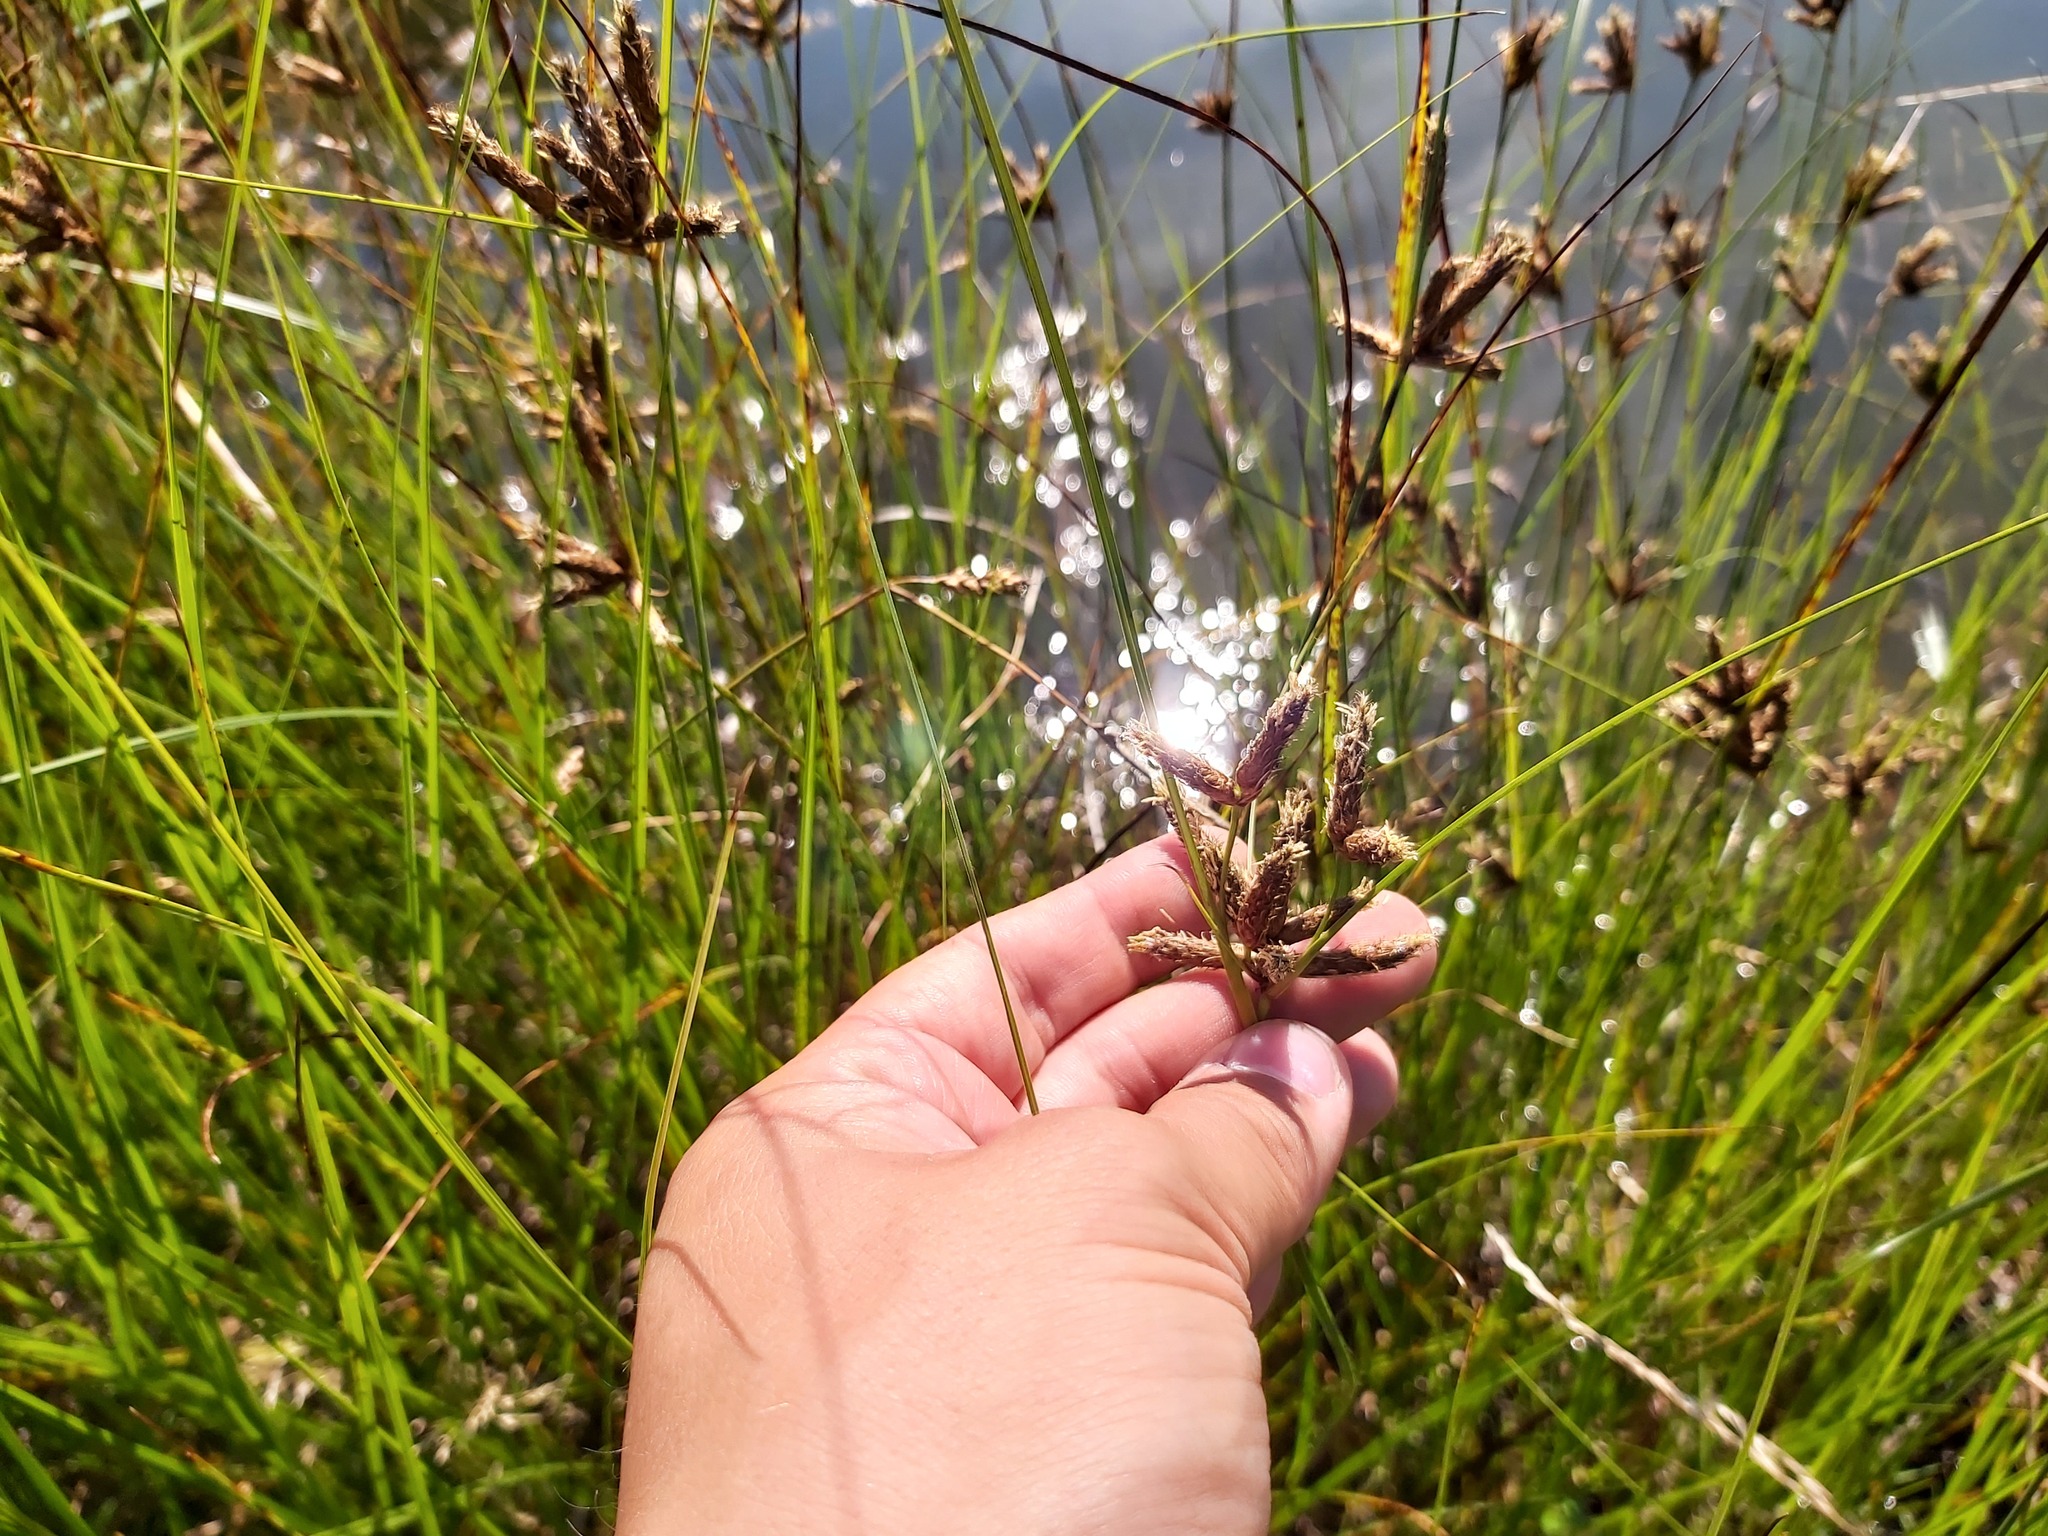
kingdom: Plantae
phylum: Tracheophyta
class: Liliopsida
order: Poales
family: Cyperaceae
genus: Bolboschoenus
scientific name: Bolboschoenus maritimus
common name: Sea club-rush
